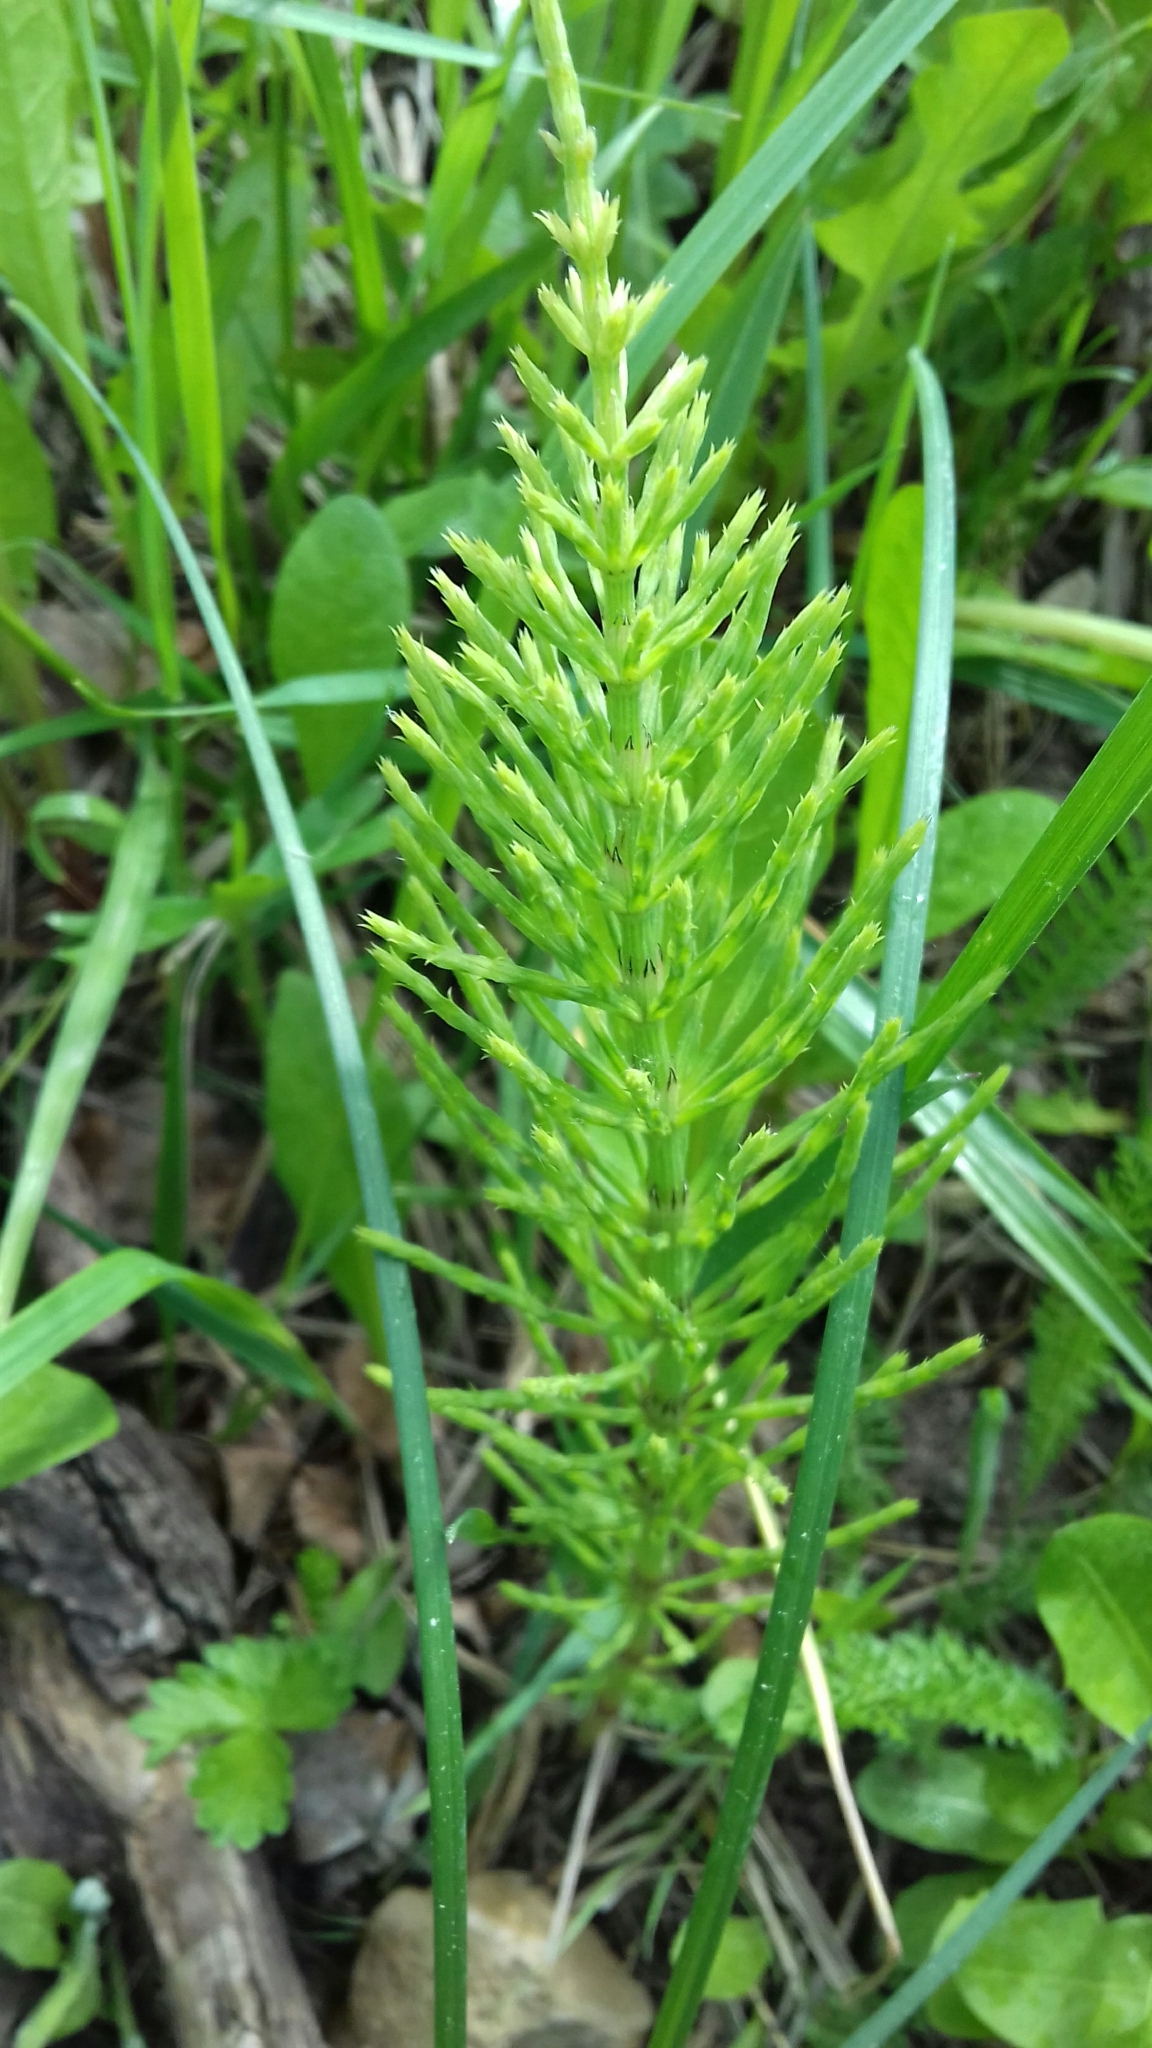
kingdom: Plantae
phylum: Tracheophyta
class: Polypodiopsida
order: Equisetales
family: Equisetaceae
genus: Equisetum
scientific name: Equisetum arvense
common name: Field horsetail
